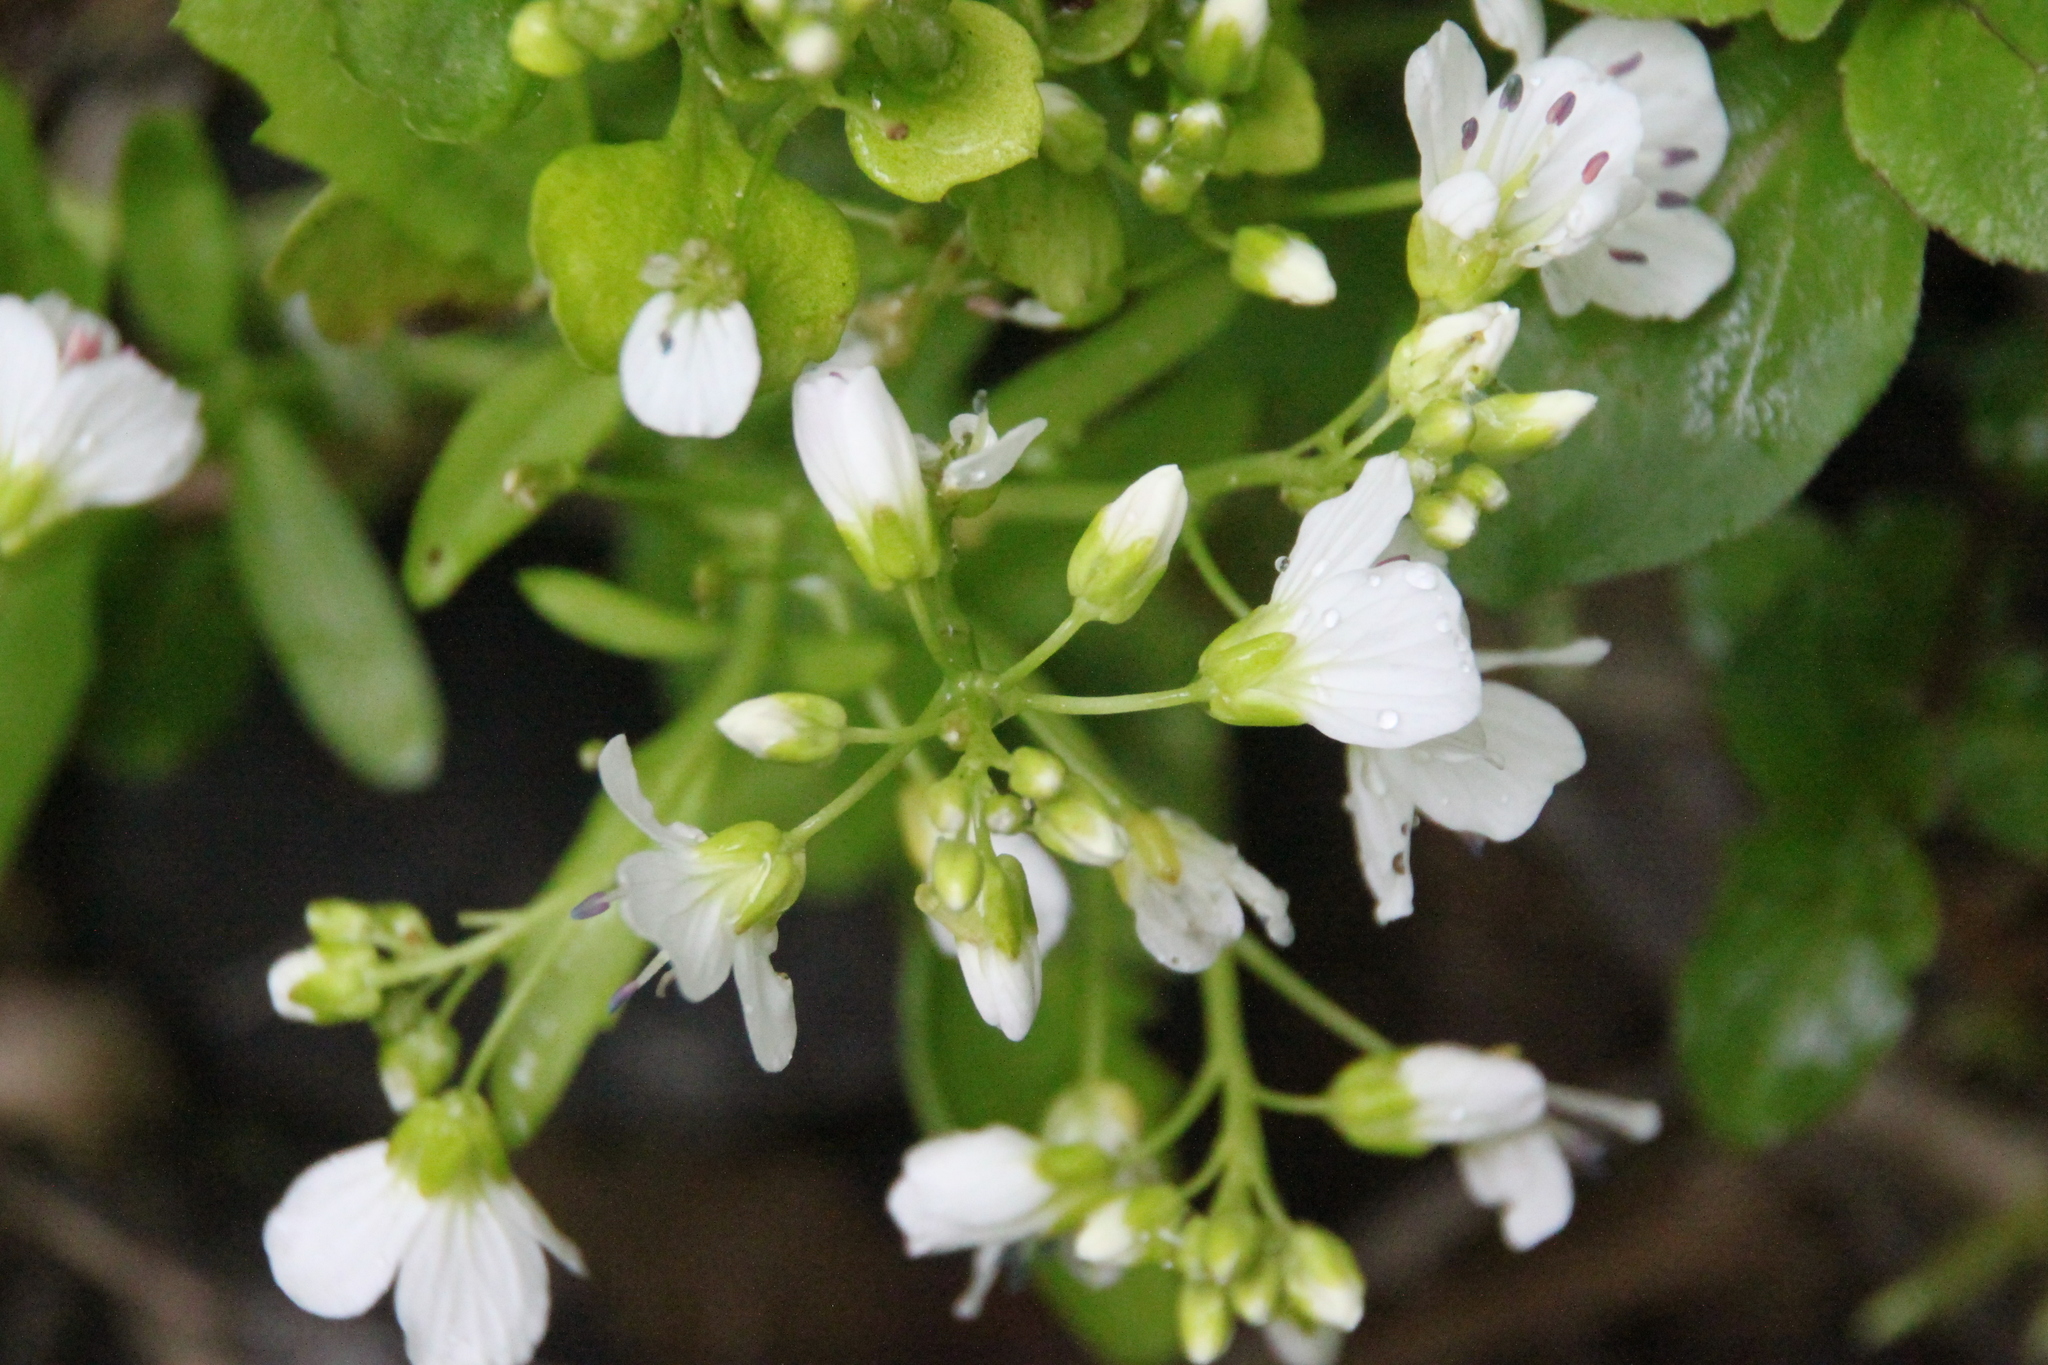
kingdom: Plantae
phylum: Tracheophyta
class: Magnoliopsida
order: Brassicales
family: Brassicaceae
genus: Cardamine
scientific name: Cardamine amara
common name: Large bitter-cress
